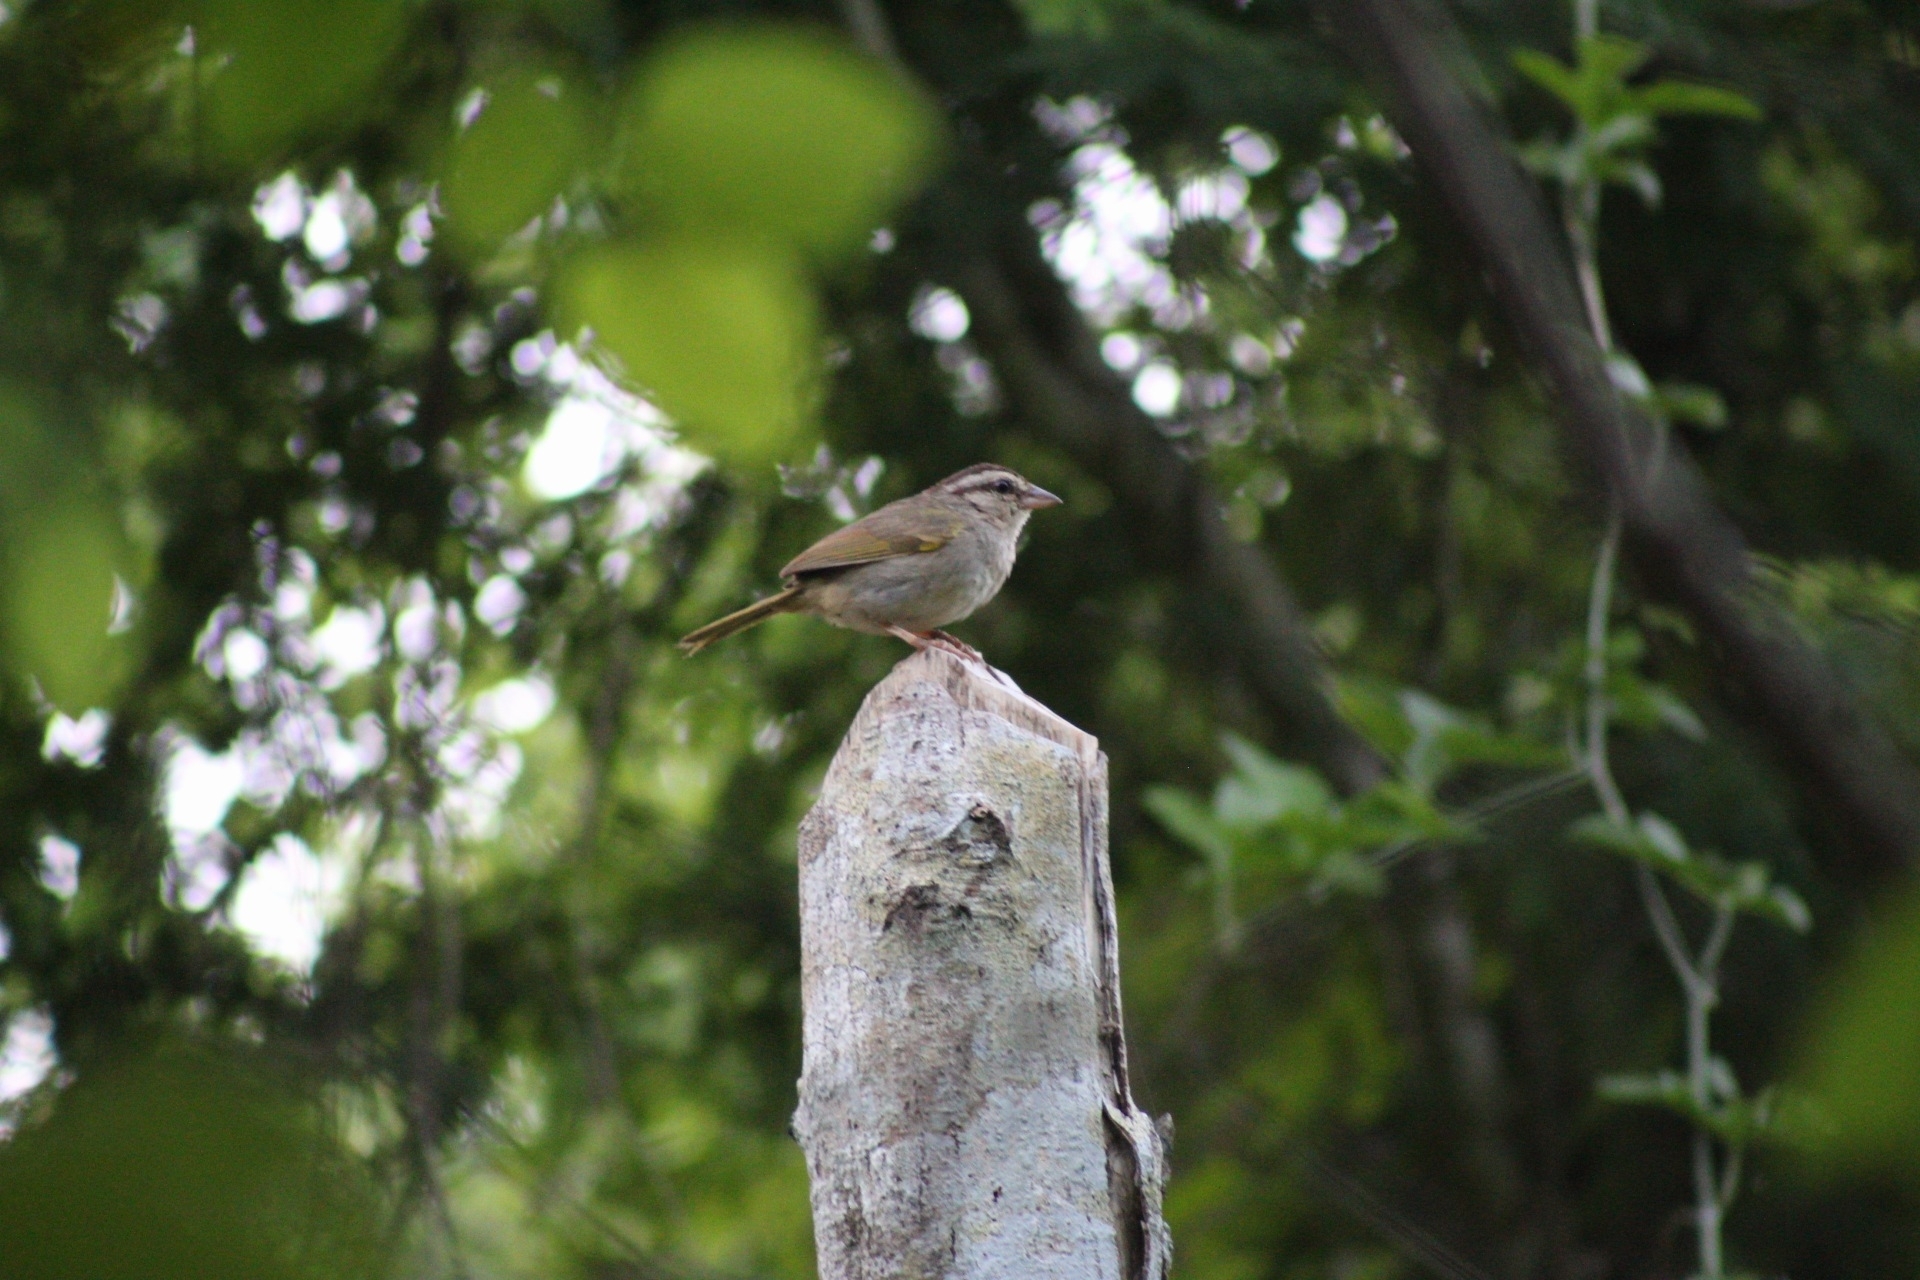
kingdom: Animalia
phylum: Chordata
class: Aves
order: Passeriformes
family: Passerellidae
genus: Arremonops
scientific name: Arremonops rufivirgatus
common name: Olive sparrow
